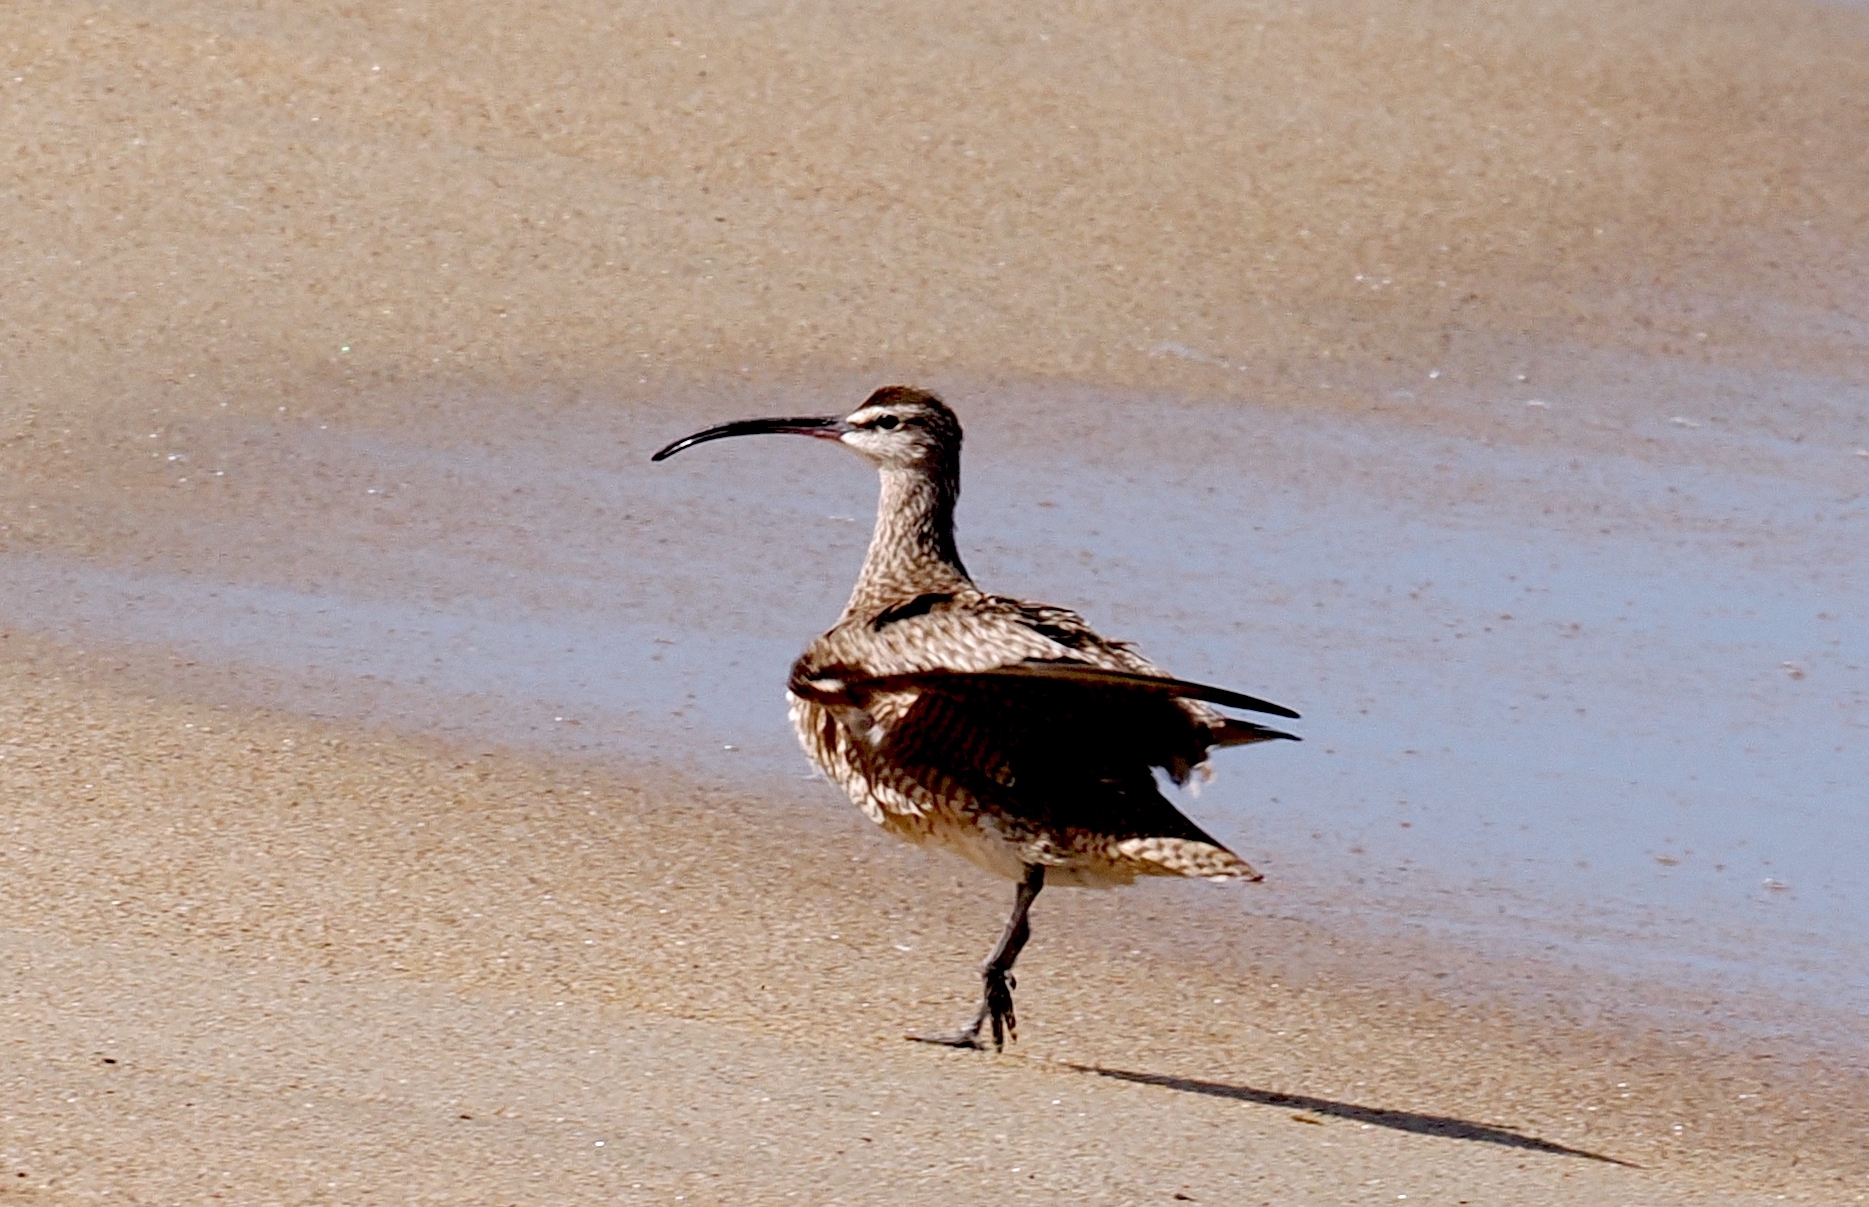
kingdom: Animalia
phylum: Chordata
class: Aves
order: Charadriiformes
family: Scolopacidae
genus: Numenius
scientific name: Numenius phaeopus
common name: Whimbrel
